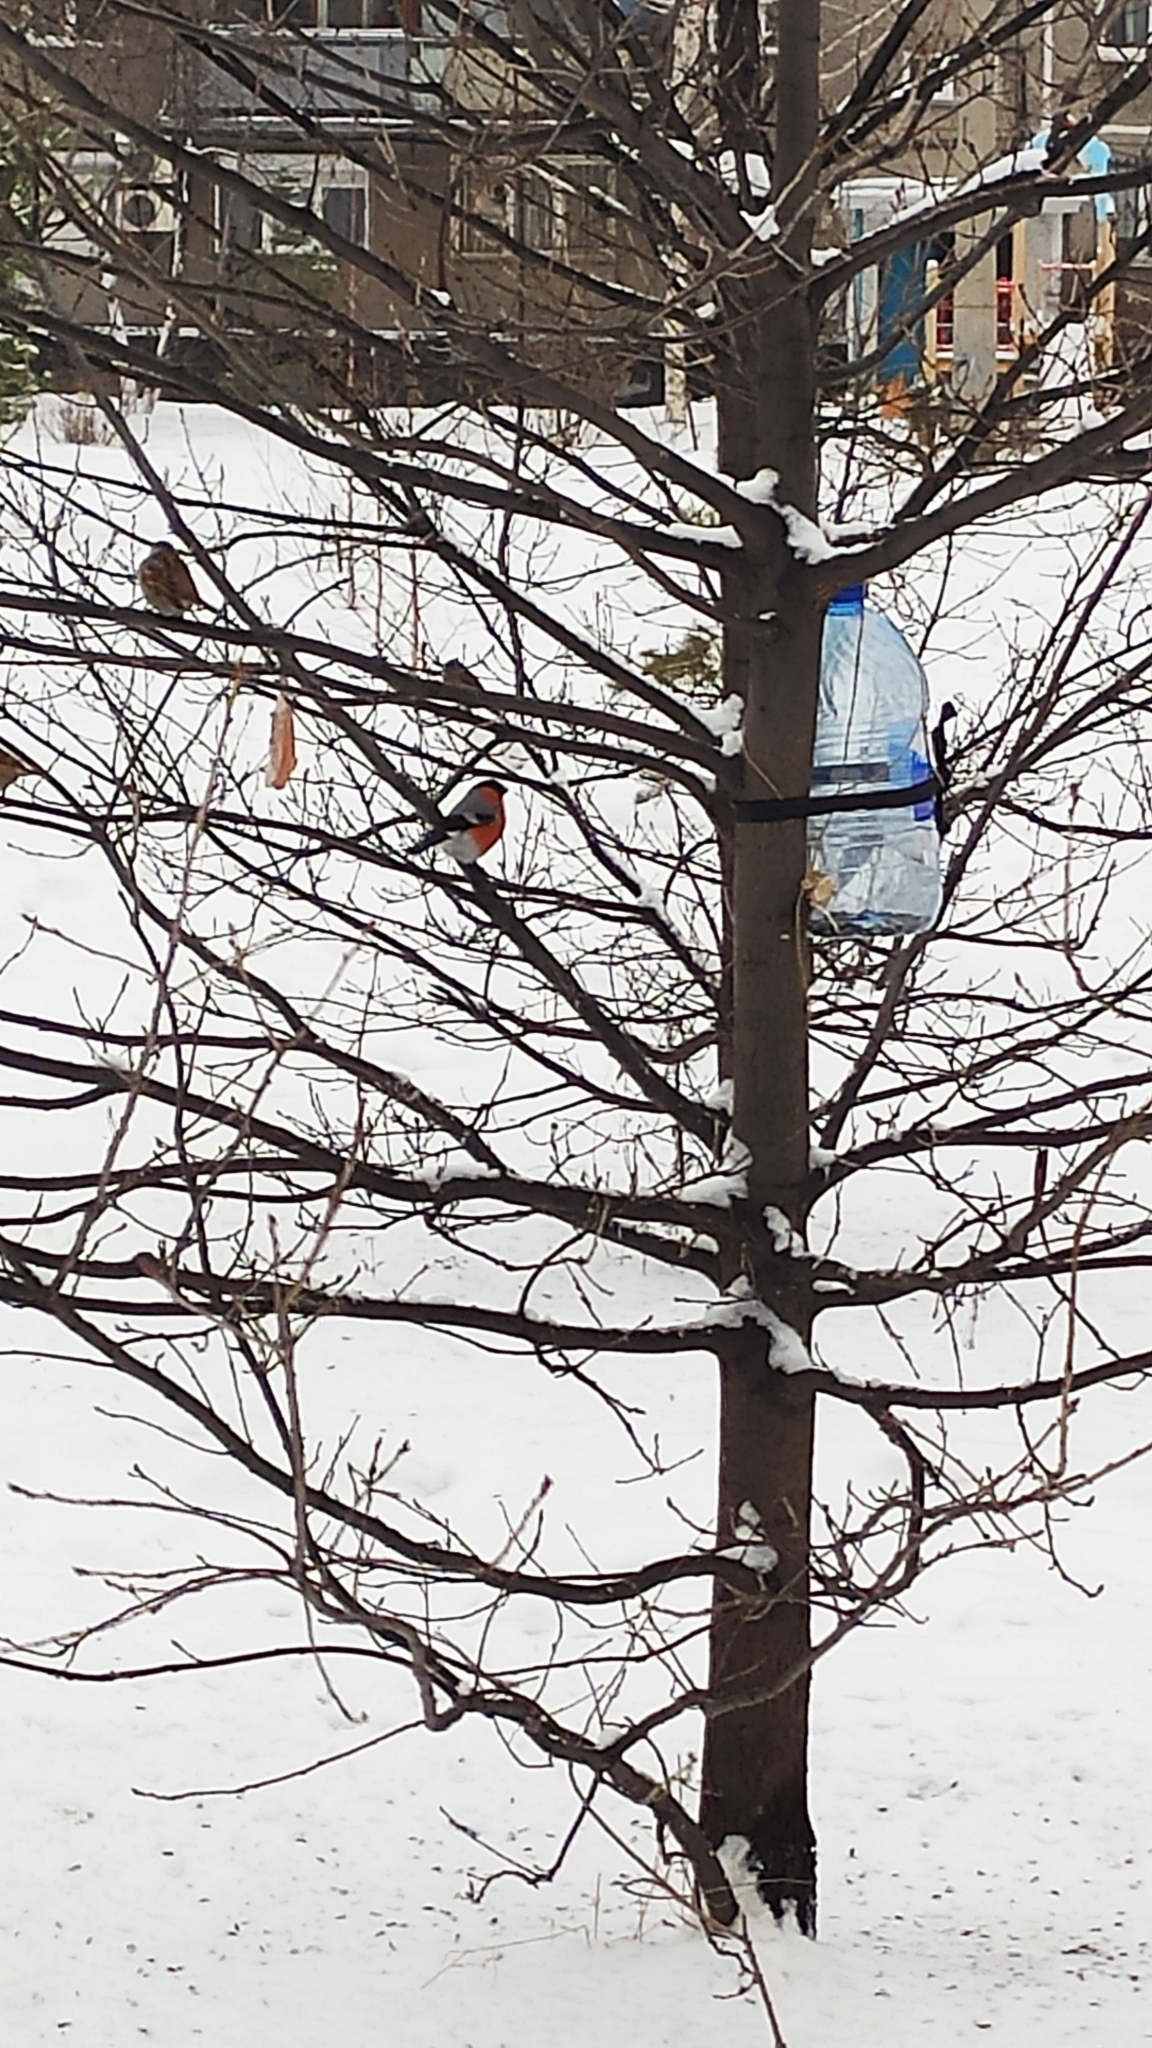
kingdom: Animalia
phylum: Chordata
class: Aves
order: Passeriformes
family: Fringillidae
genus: Pyrrhula
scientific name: Pyrrhula pyrrhula
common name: Eurasian bullfinch
